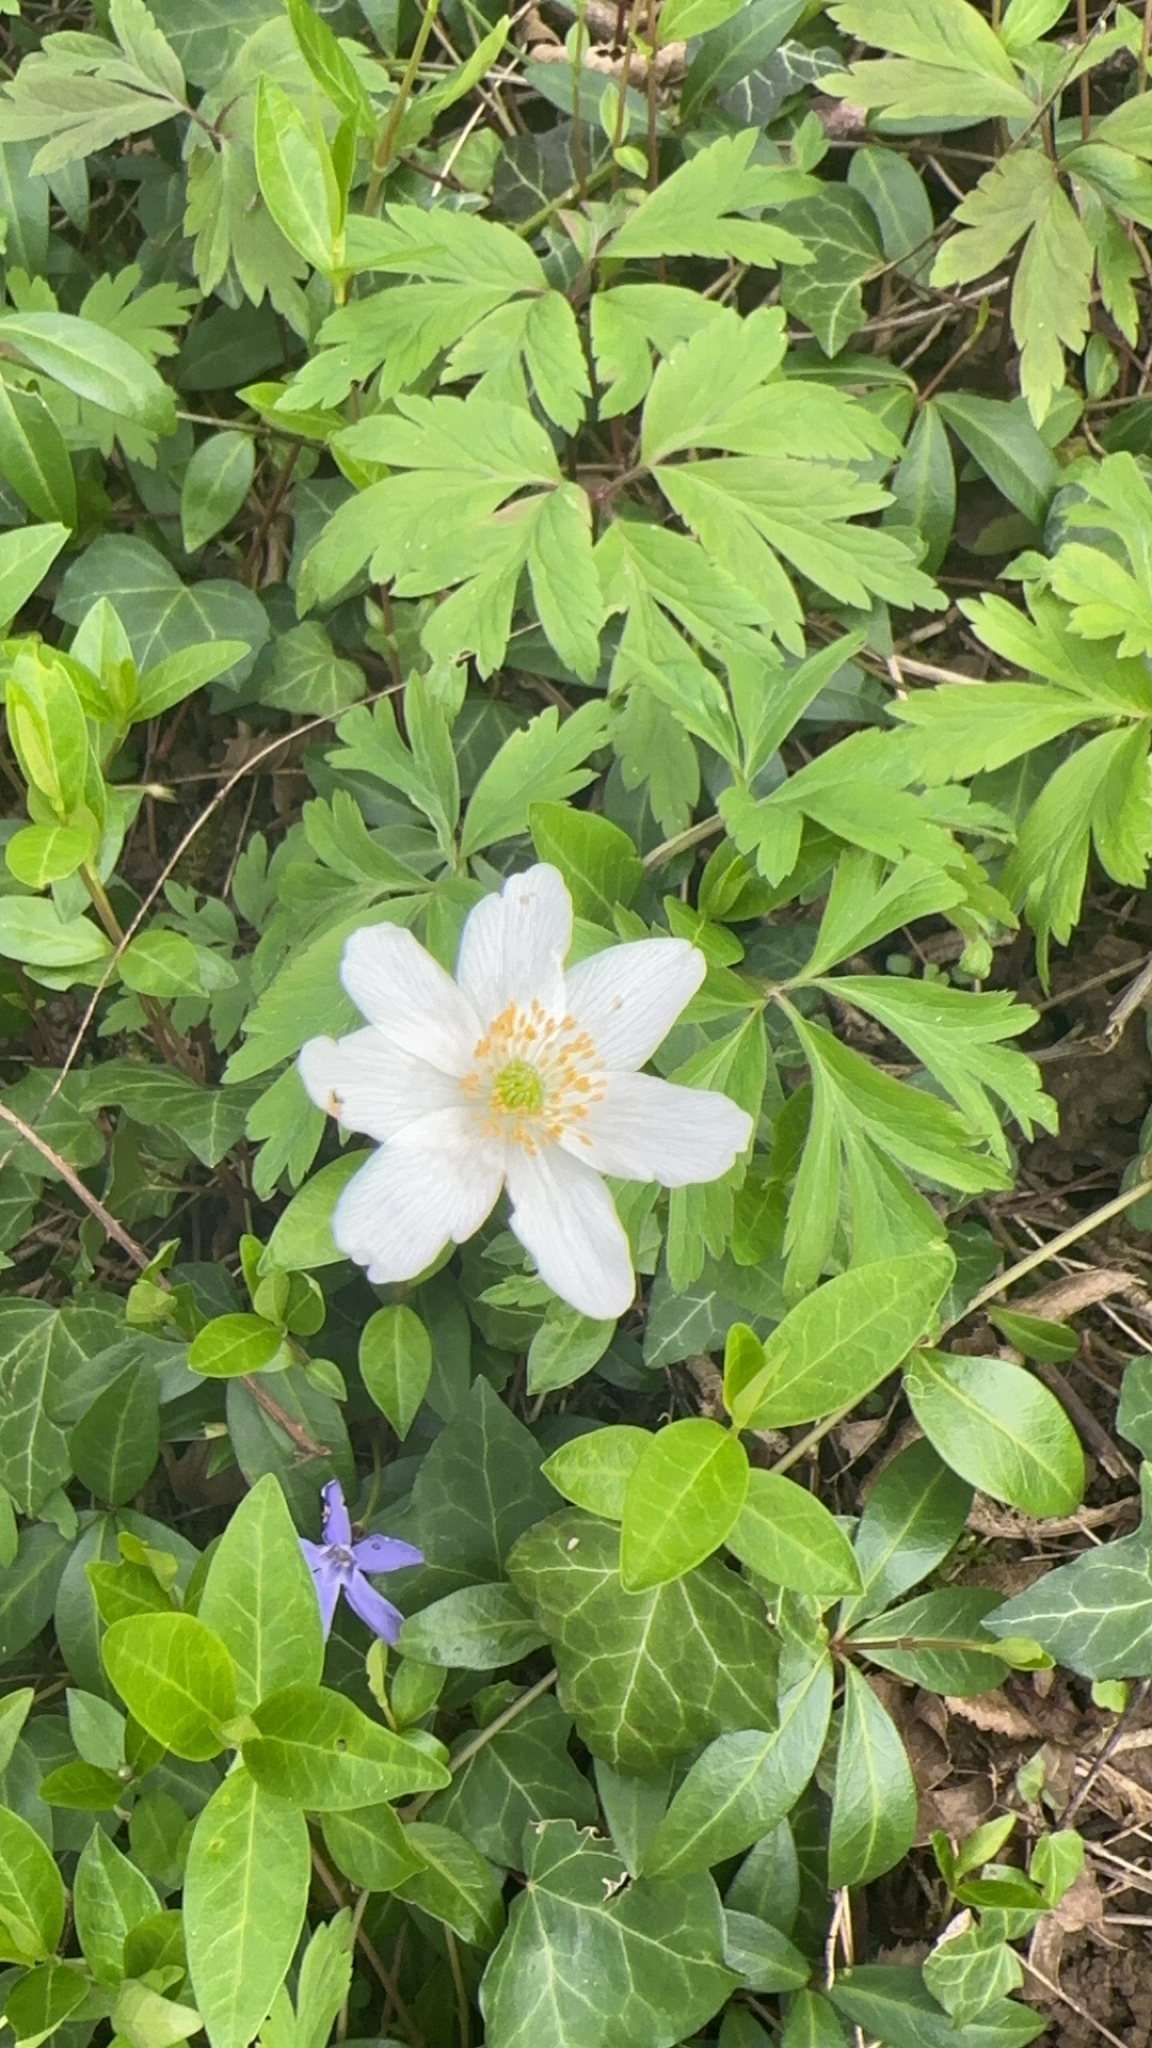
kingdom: Plantae
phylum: Tracheophyta
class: Magnoliopsida
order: Ranunculales
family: Ranunculaceae
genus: Anemone
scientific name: Anemone nemorosa
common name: Wood anemone
